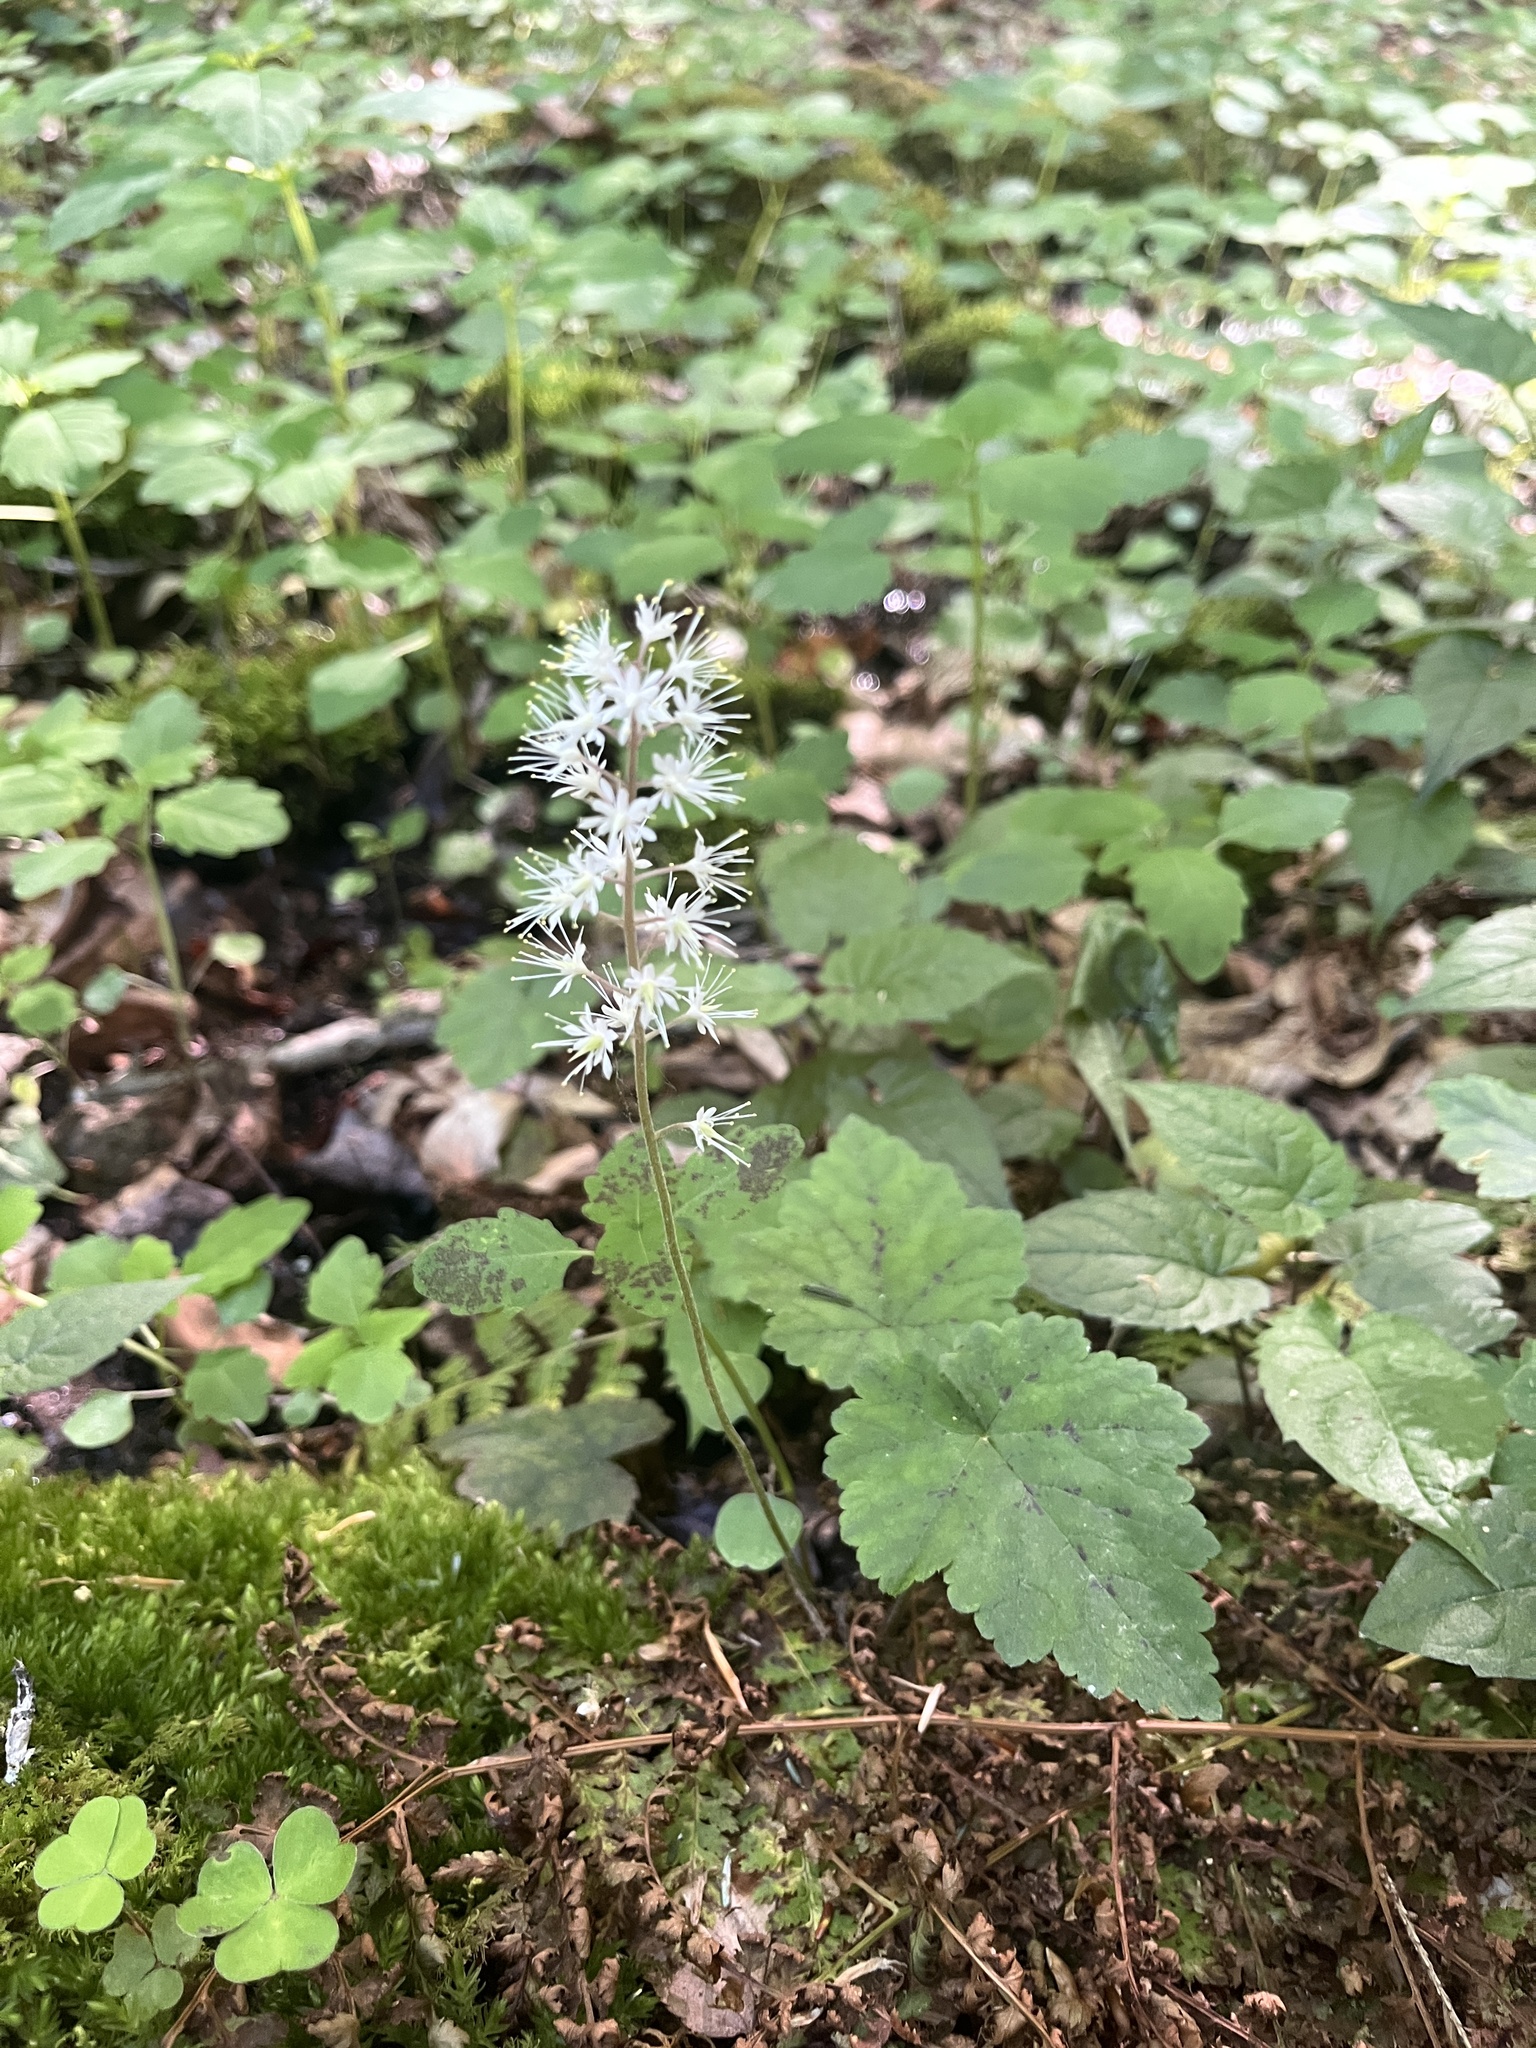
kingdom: Plantae
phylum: Tracheophyta
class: Magnoliopsida
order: Saxifragales
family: Saxifragaceae
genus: Tiarella
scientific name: Tiarella stolonifera
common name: Stoloniferous foamflower
